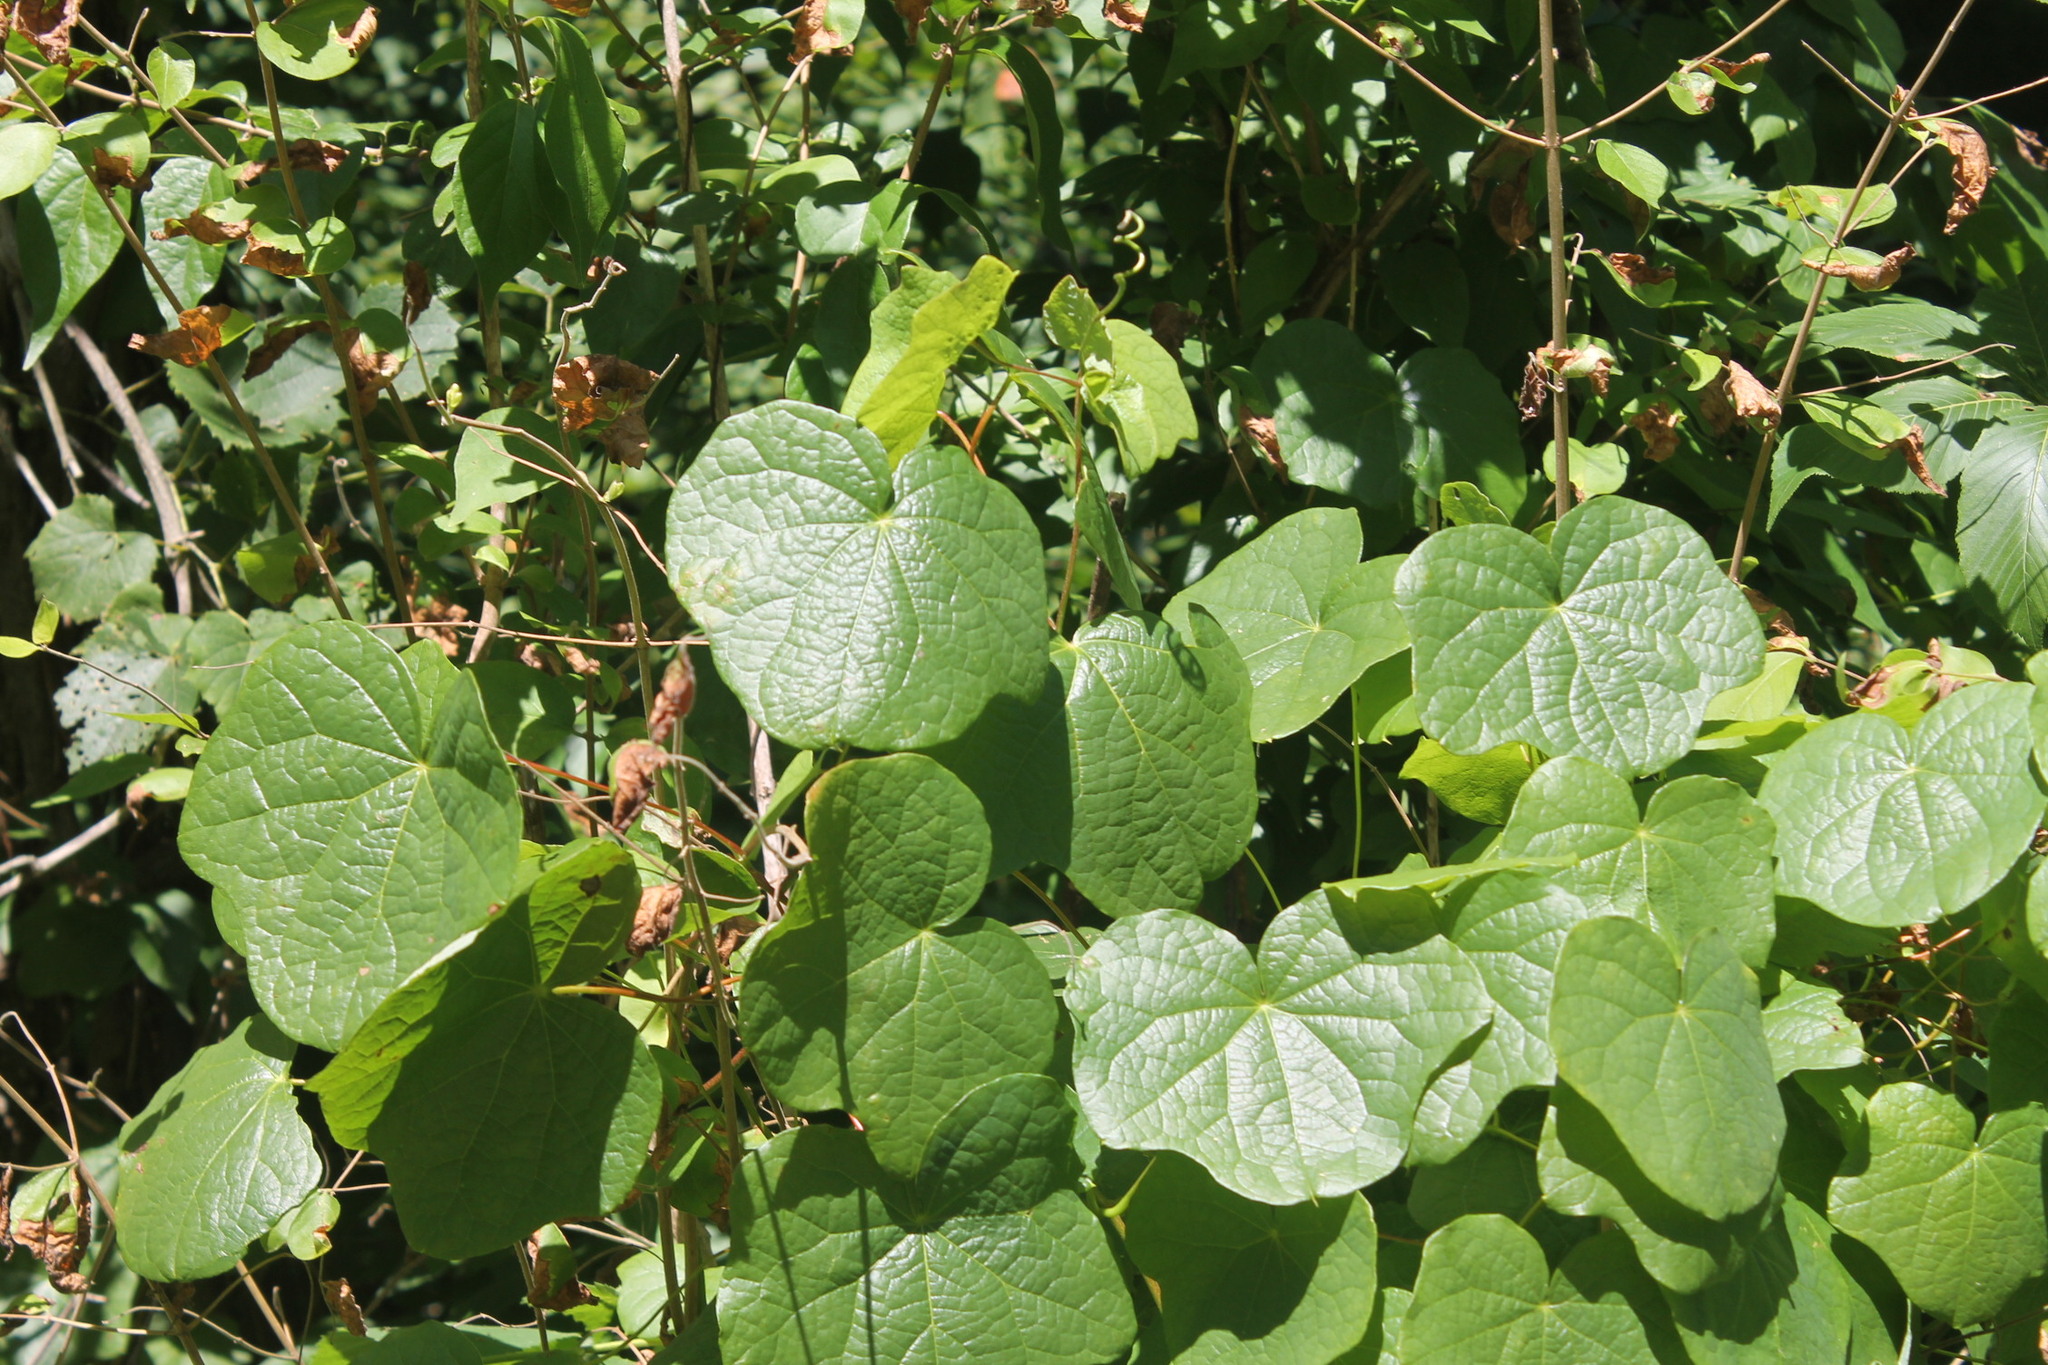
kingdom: Plantae
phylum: Tracheophyta
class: Magnoliopsida
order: Ranunculales
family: Menispermaceae
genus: Menispermum
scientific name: Menispermum canadense
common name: Moonseed
